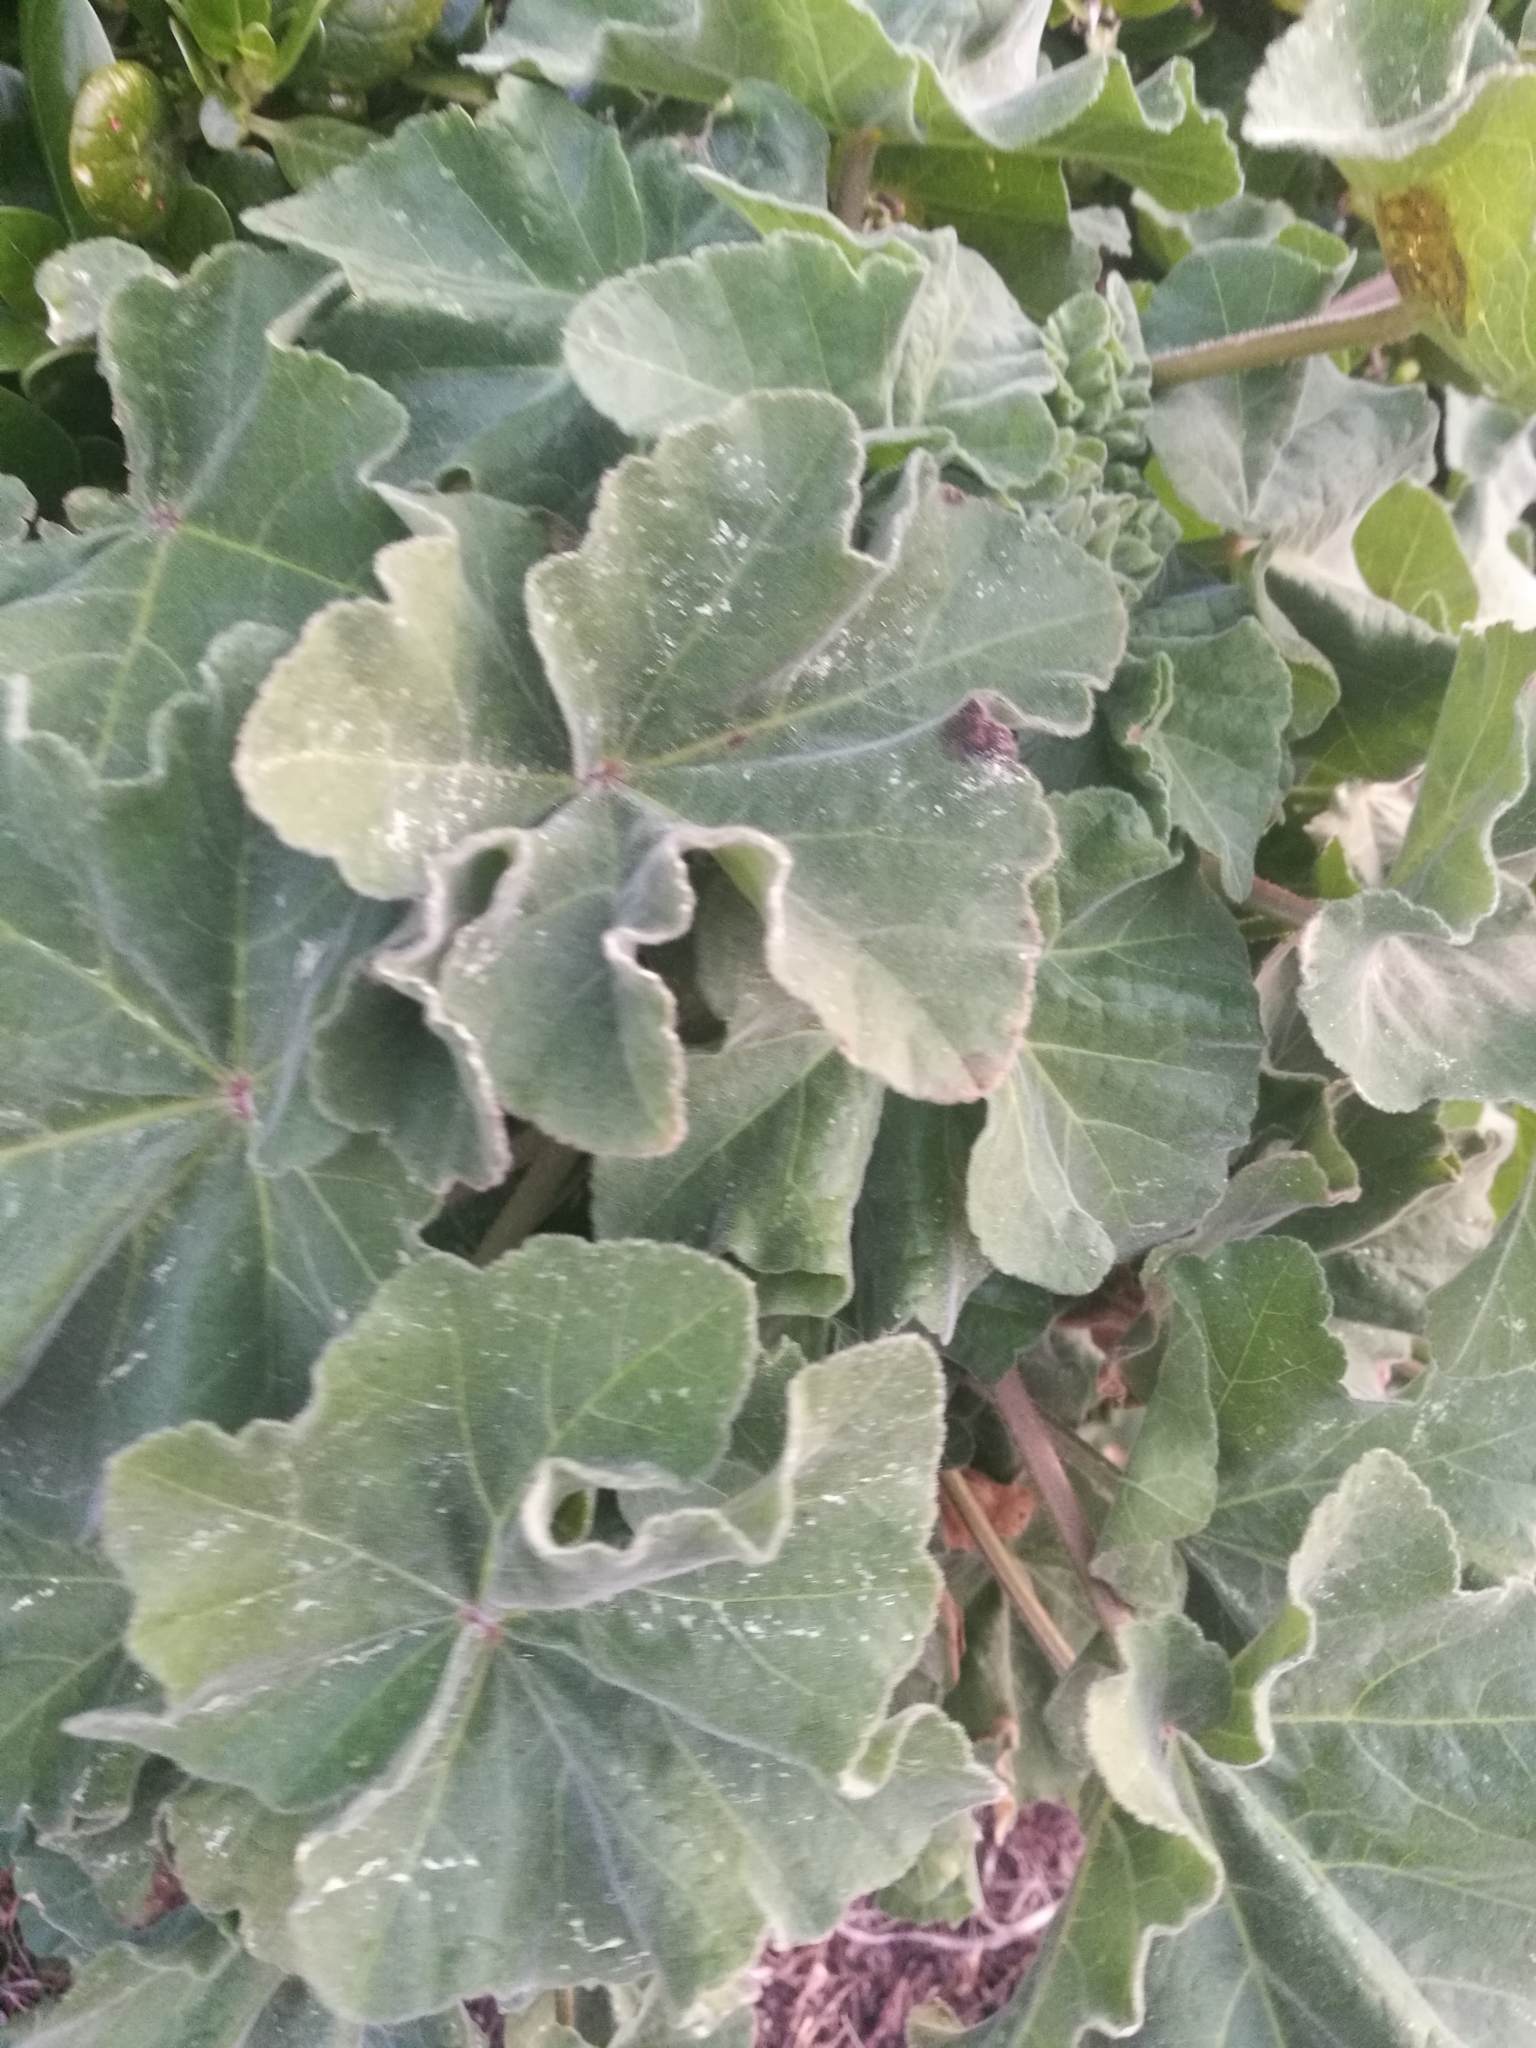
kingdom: Plantae
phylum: Tracheophyta
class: Magnoliopsida
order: Malvales
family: Malvaceae
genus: Malva
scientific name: Malva arborea
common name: Tree mallow
